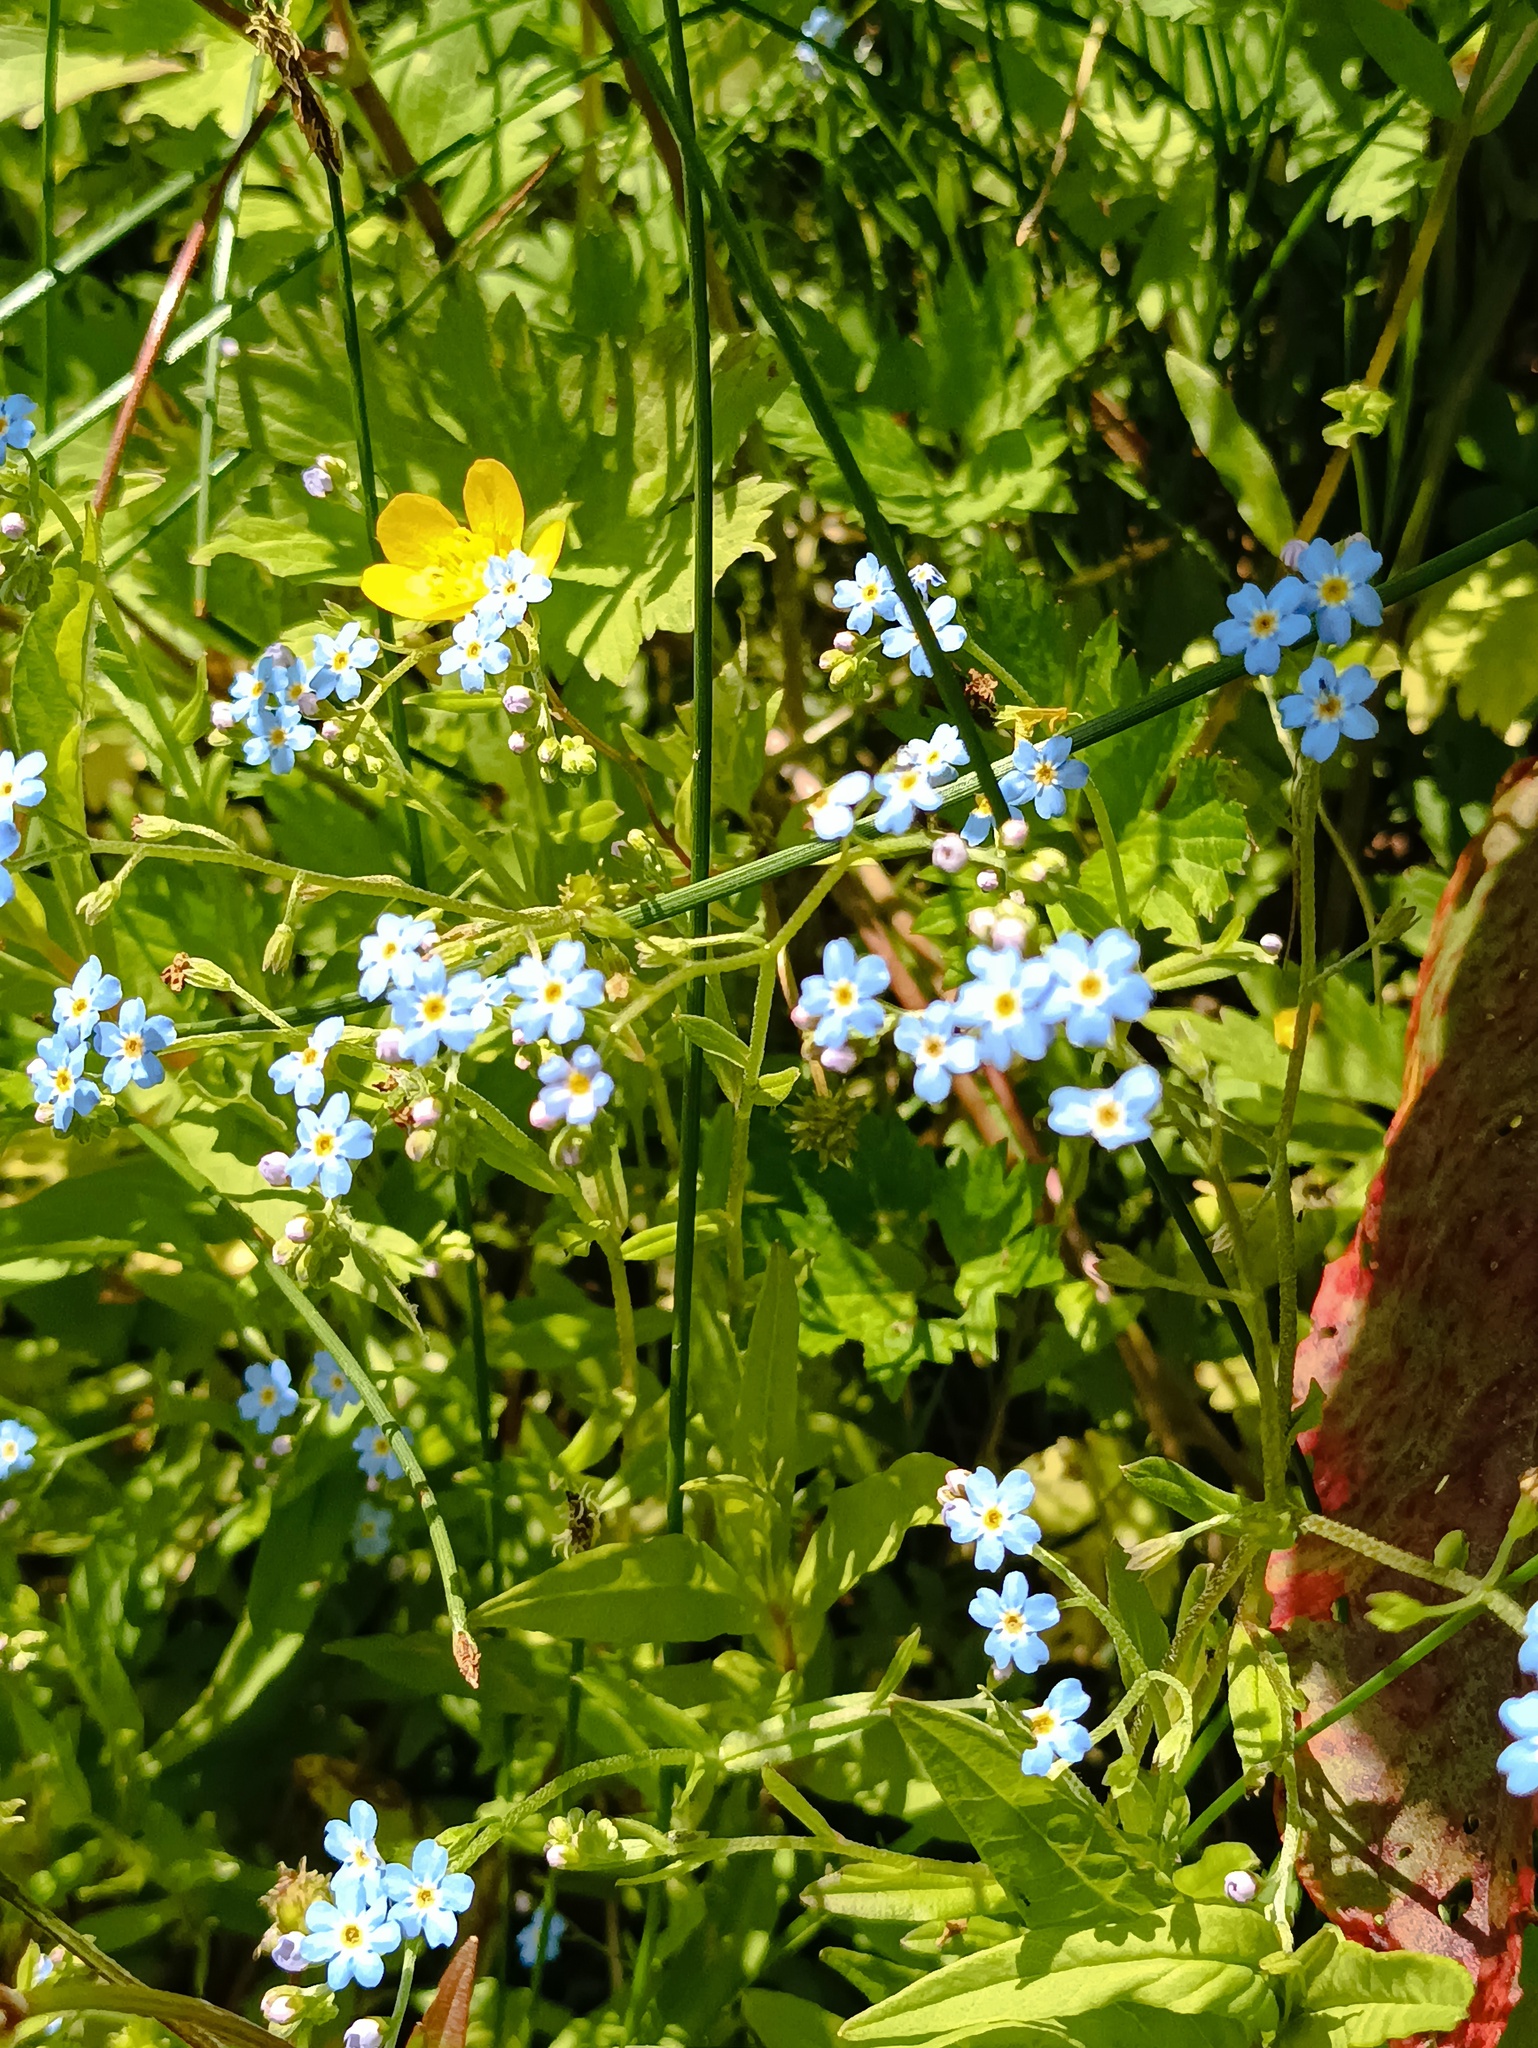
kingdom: Plantae
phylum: Tracheophyta
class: Magnoliopsida
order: Boraginales
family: Boraginaceae
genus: Myosotis
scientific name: Myosotis scorpioides
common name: Water forget-me-not
